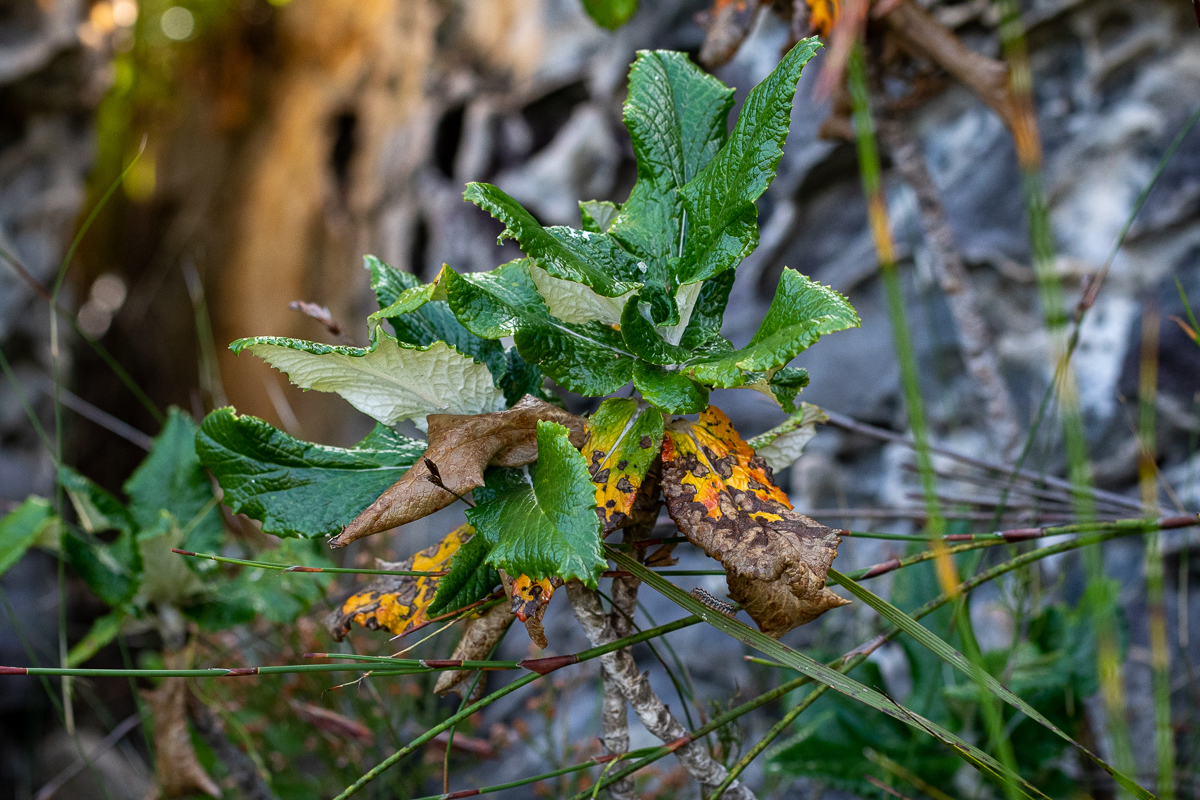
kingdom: Plantae
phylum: Tracheophyta
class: Magnoliopsida
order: Apiales
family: Apiaceae
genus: Hermas
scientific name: Hermas villosa
